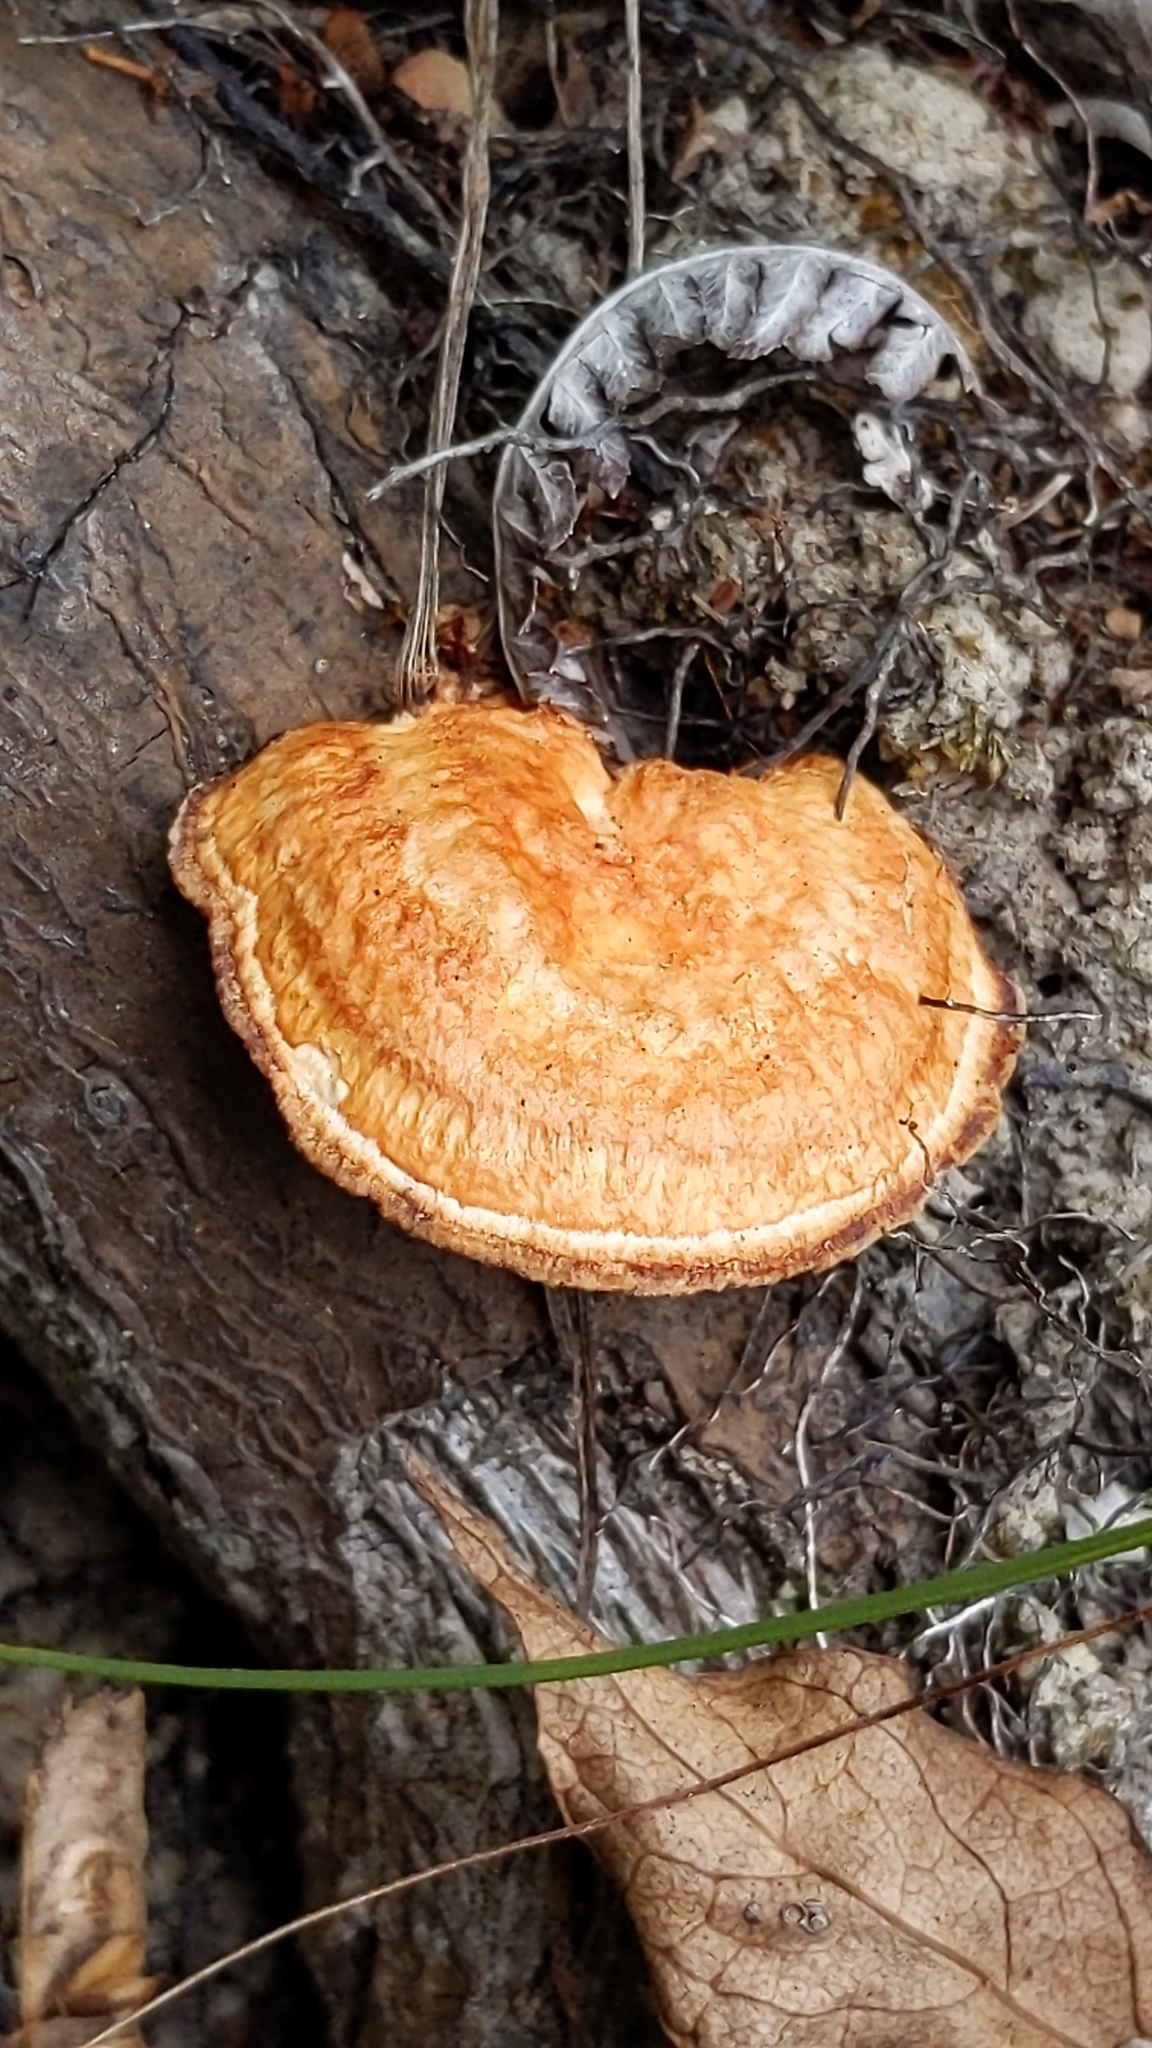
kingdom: Fungi
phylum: Basidiomycota
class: Agaricomycetes
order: Polyporales
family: Polyporaceae
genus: Trametes
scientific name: Trametes coccinea
